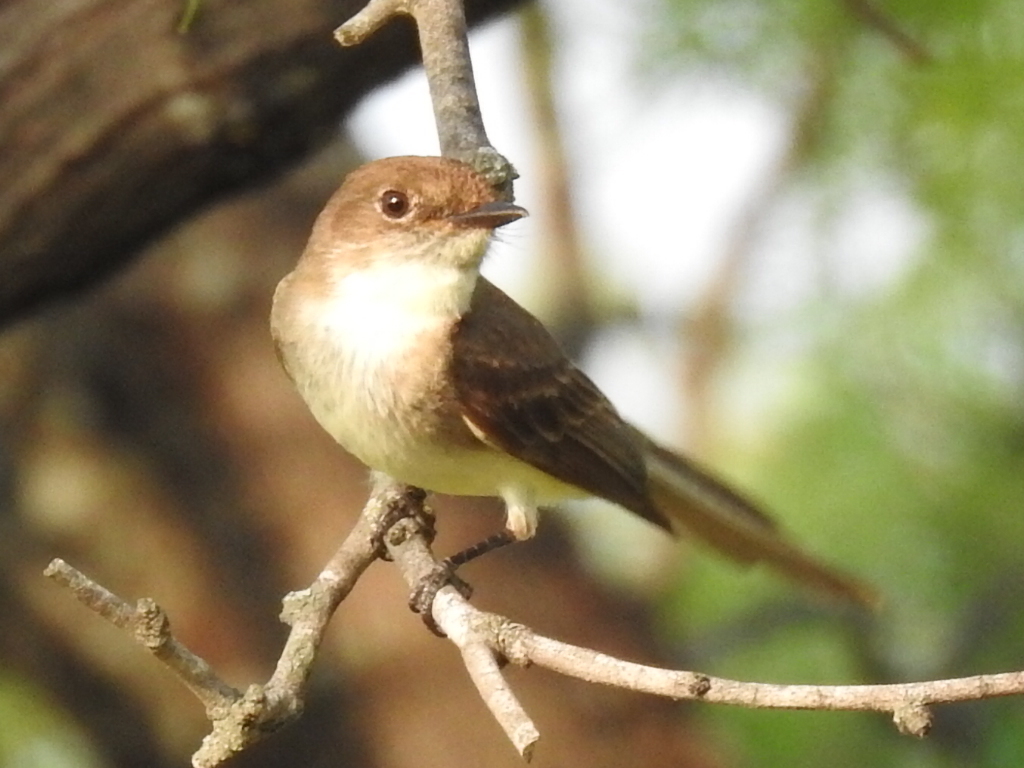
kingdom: Animalia
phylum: Chordata
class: Aves
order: Passeriformes
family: Tyrannidae
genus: Sayornis
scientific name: Sayornis phoebe
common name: Eastern phoebe
